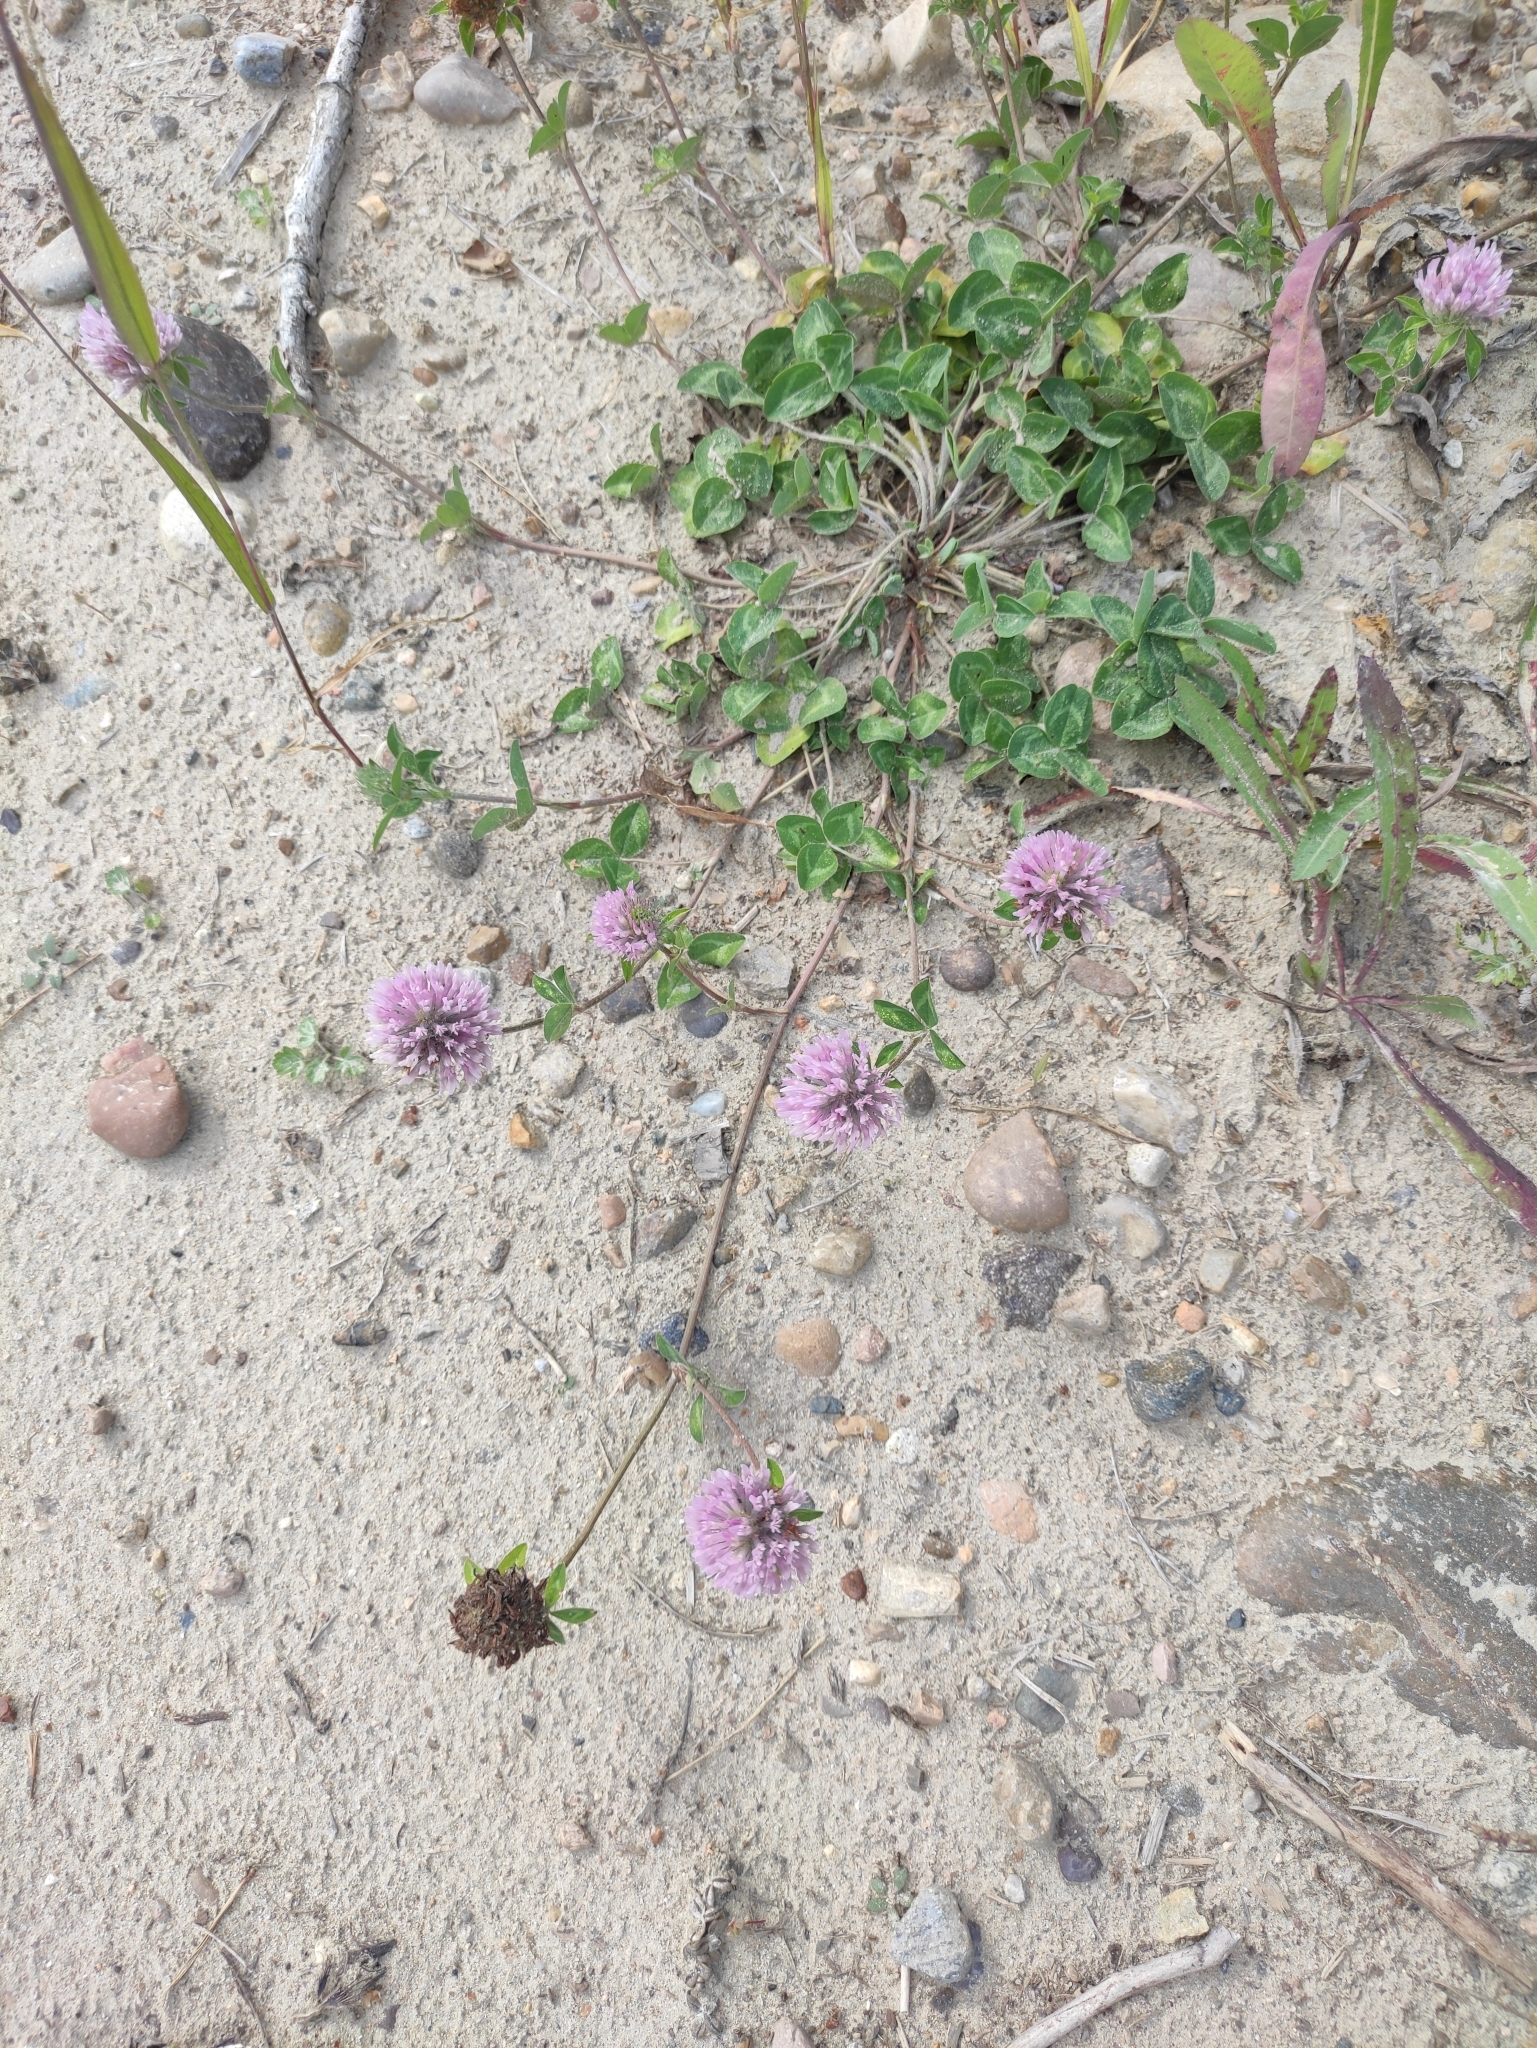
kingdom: Plantae
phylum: Tracheophyta
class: Magnoliopsida
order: Fabales
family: Fabaceae
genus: Trifolium
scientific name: Trifolium pratense
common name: Red clover
